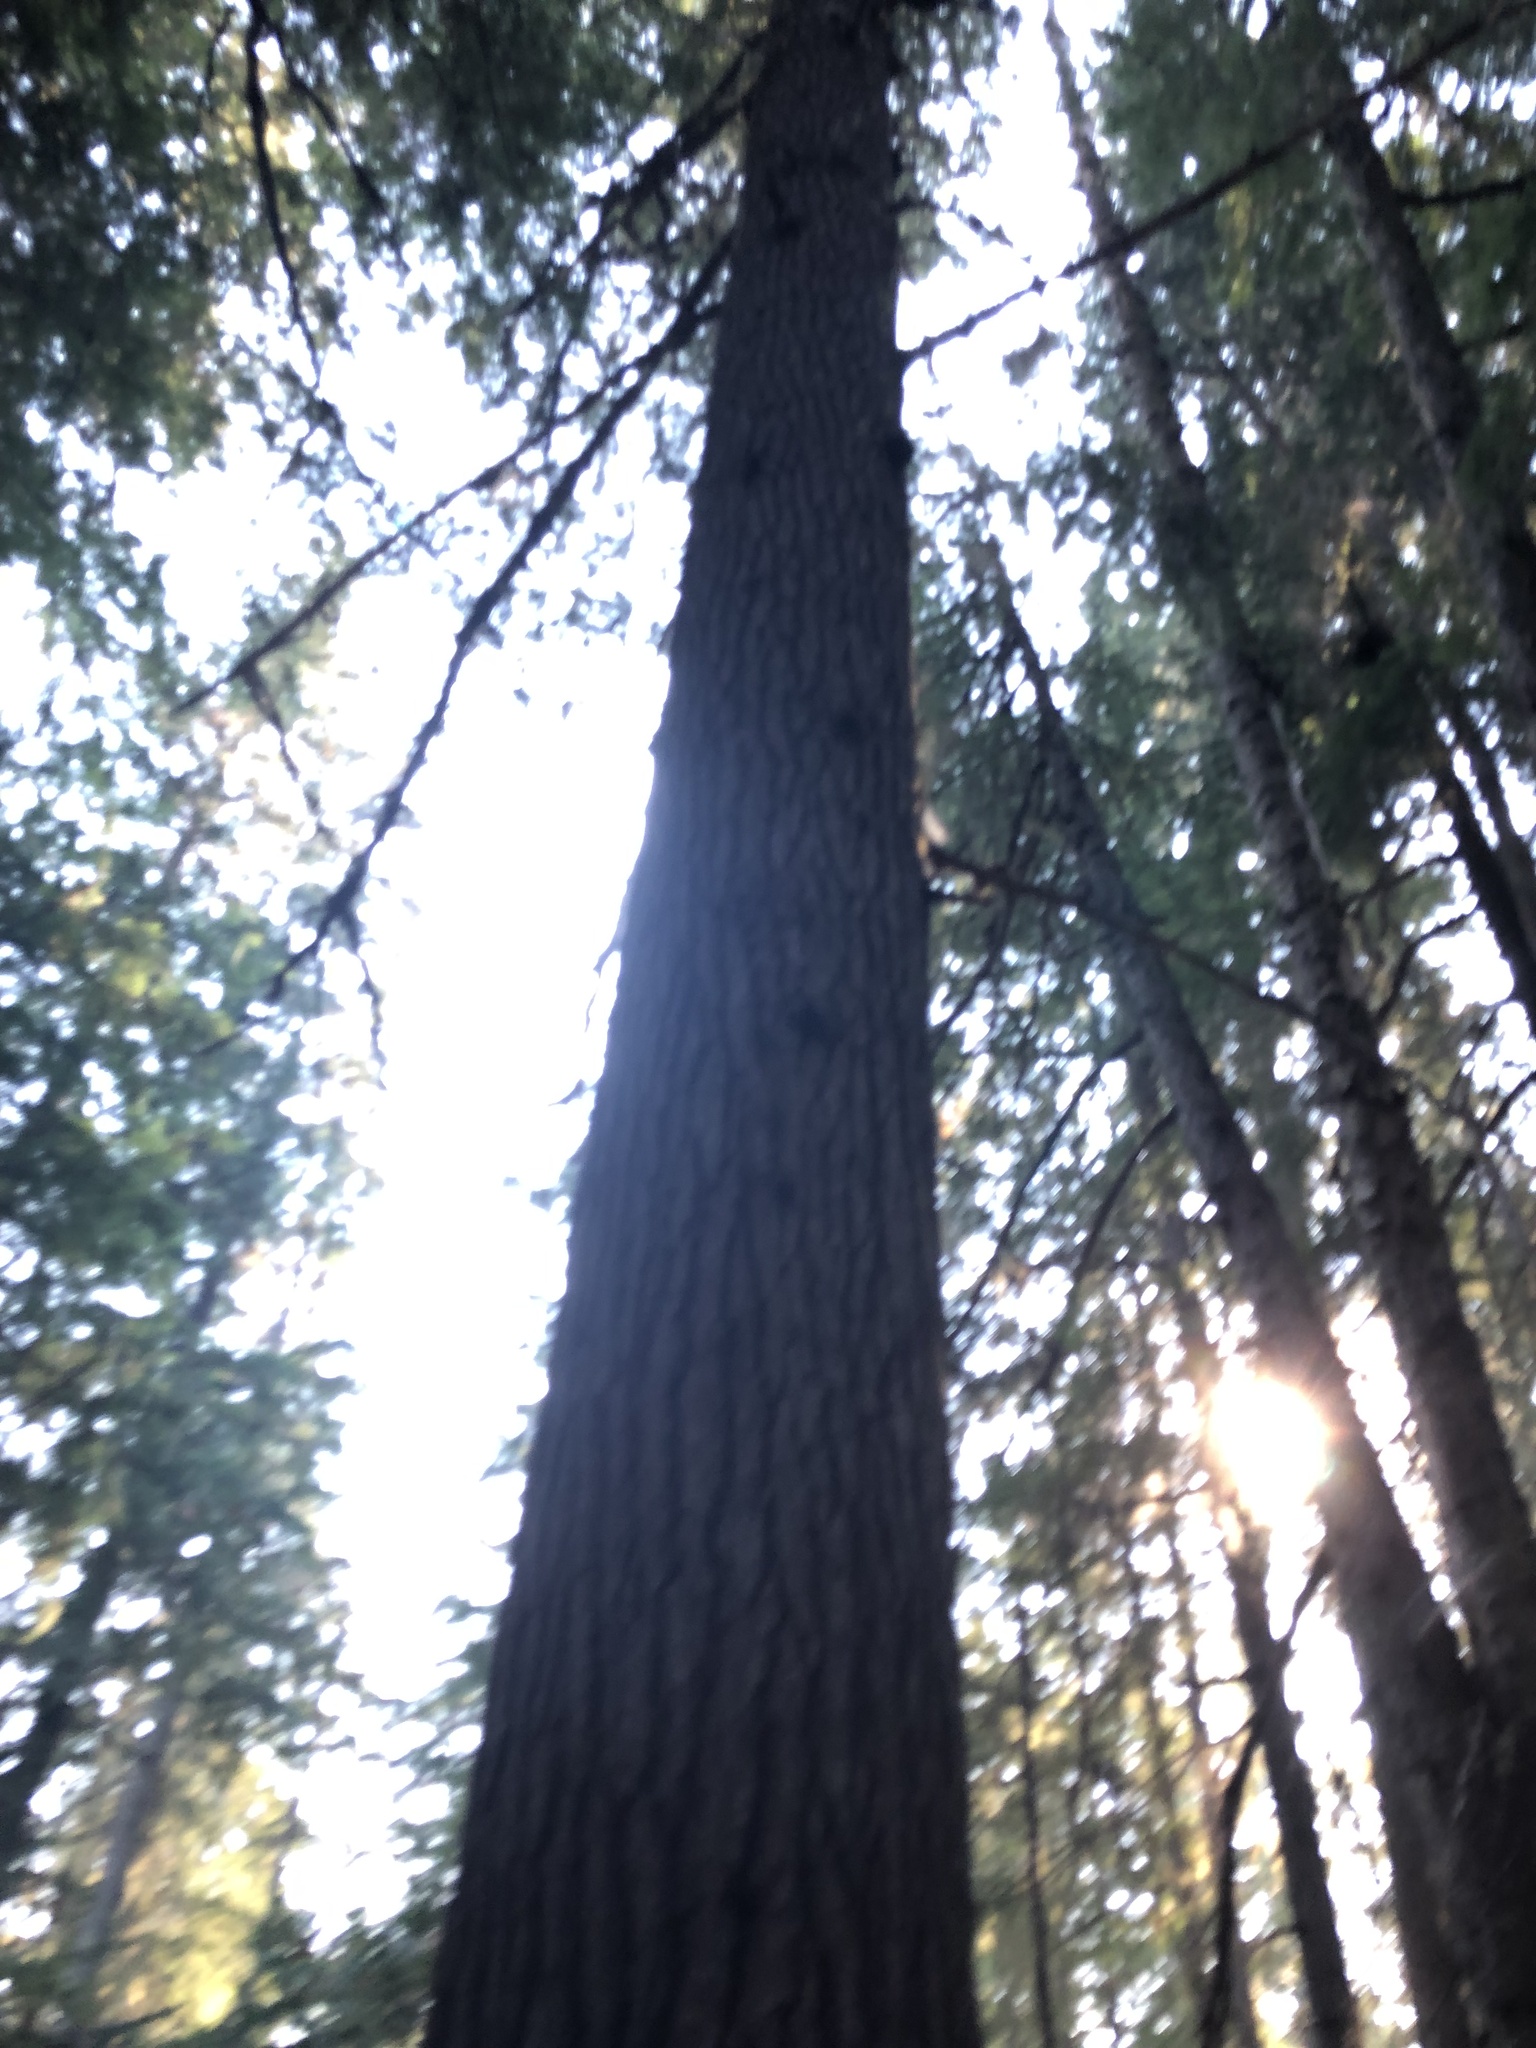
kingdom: Plantae
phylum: Tracheophyta
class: Pinopsida
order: Pinales
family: Pinaceae
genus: Tsuga
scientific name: Tsuga heterophylla
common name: Western hemlock
